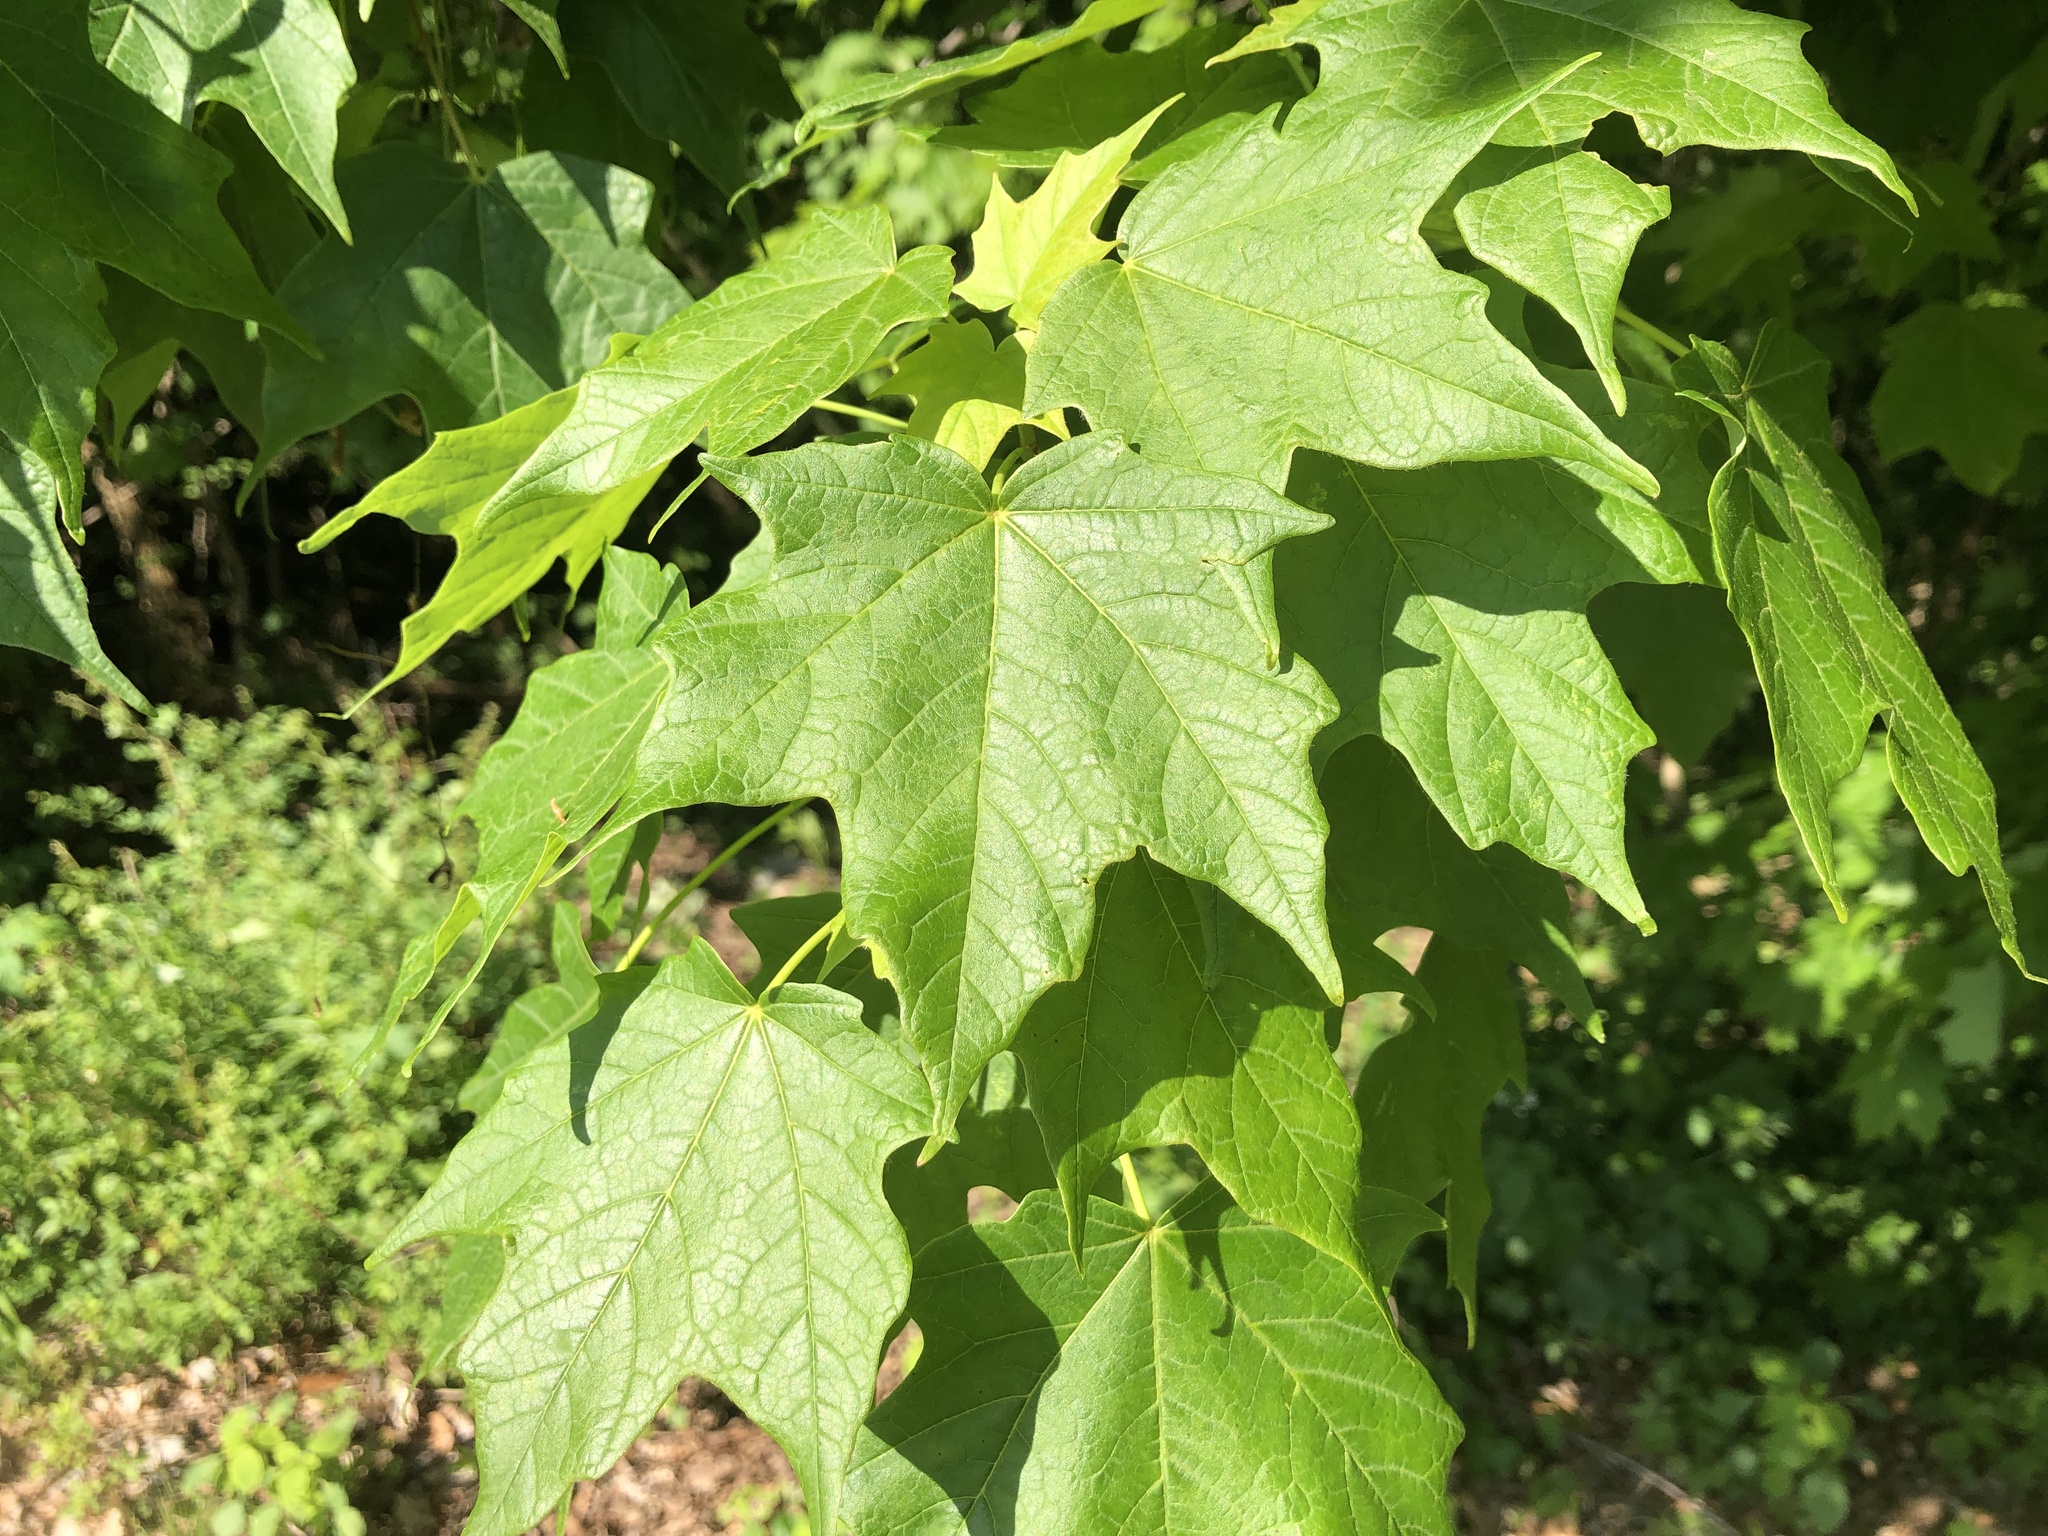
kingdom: Plantae
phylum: Tracheophyta
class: Magnoliopsida
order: Sapindales
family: Sapindaceae
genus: Acer
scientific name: Acer saccharum
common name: Sugar maple
